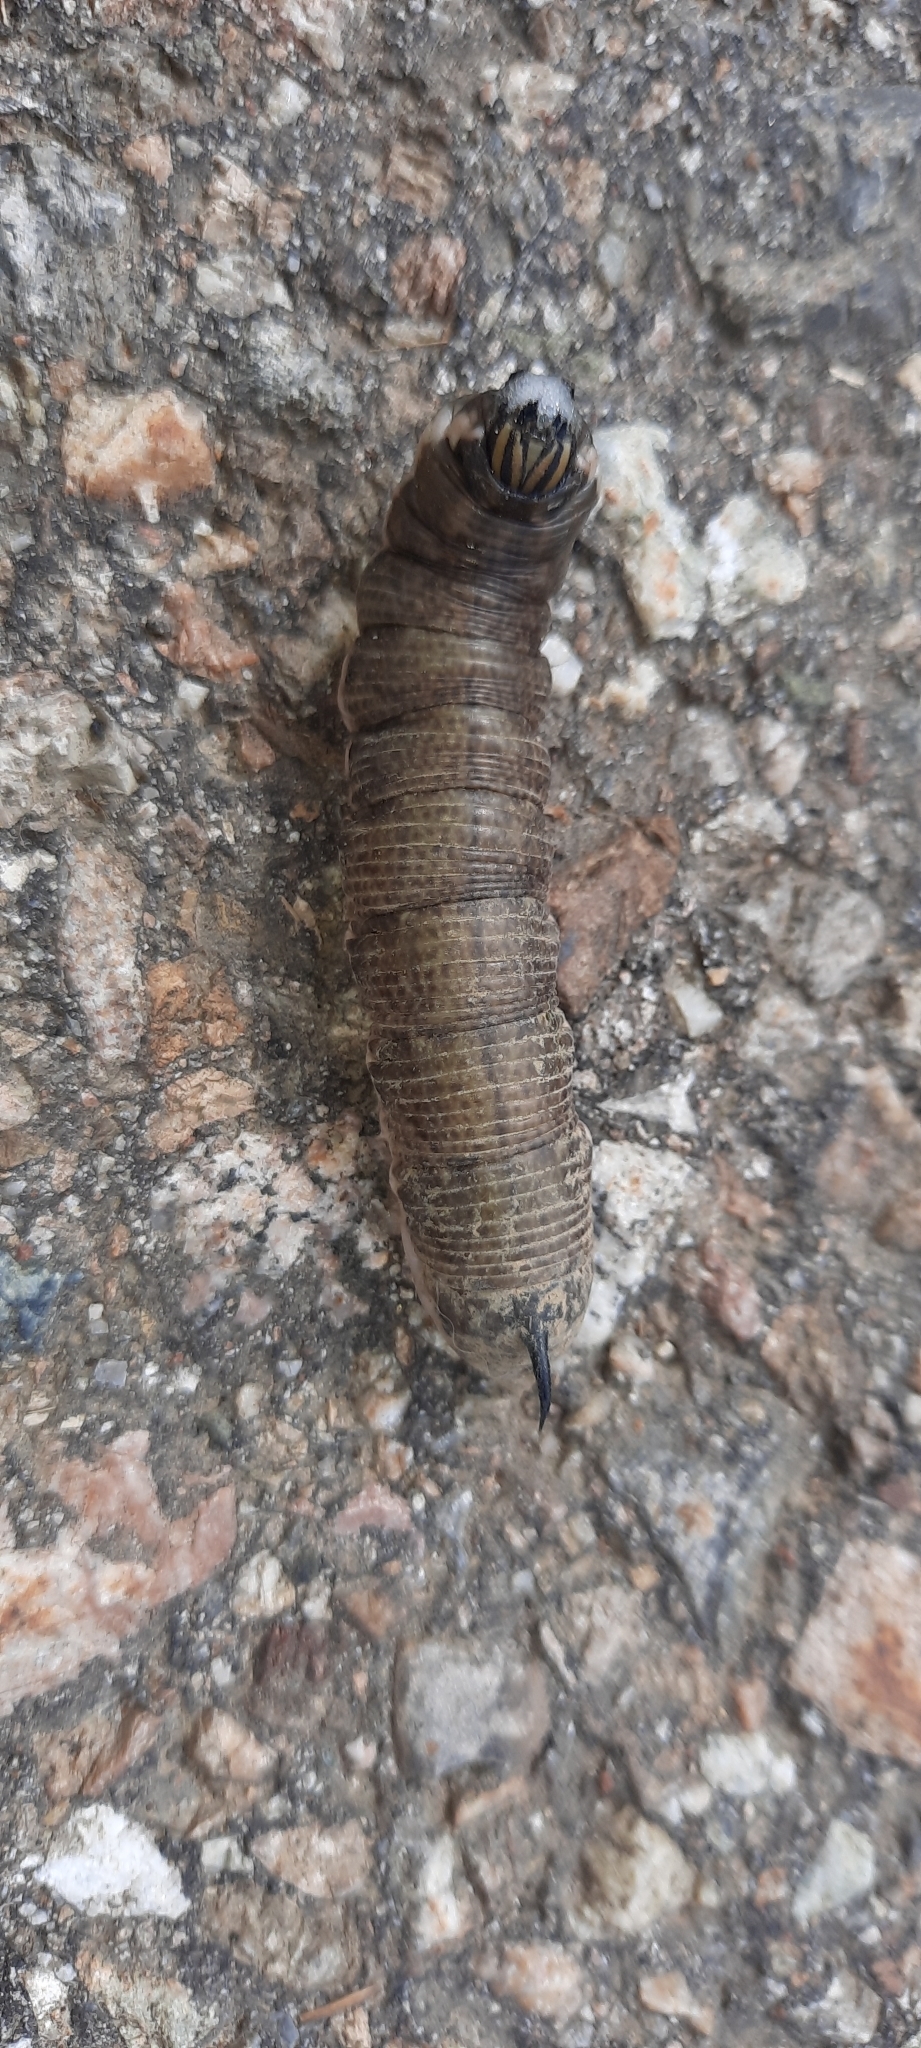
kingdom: Animalia
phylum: Arthropoda
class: Insecta
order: Lepidoptera
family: Sphingidae
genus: Agrius
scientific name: Agrius convolvuli
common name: Convolvulus hawkmoth
